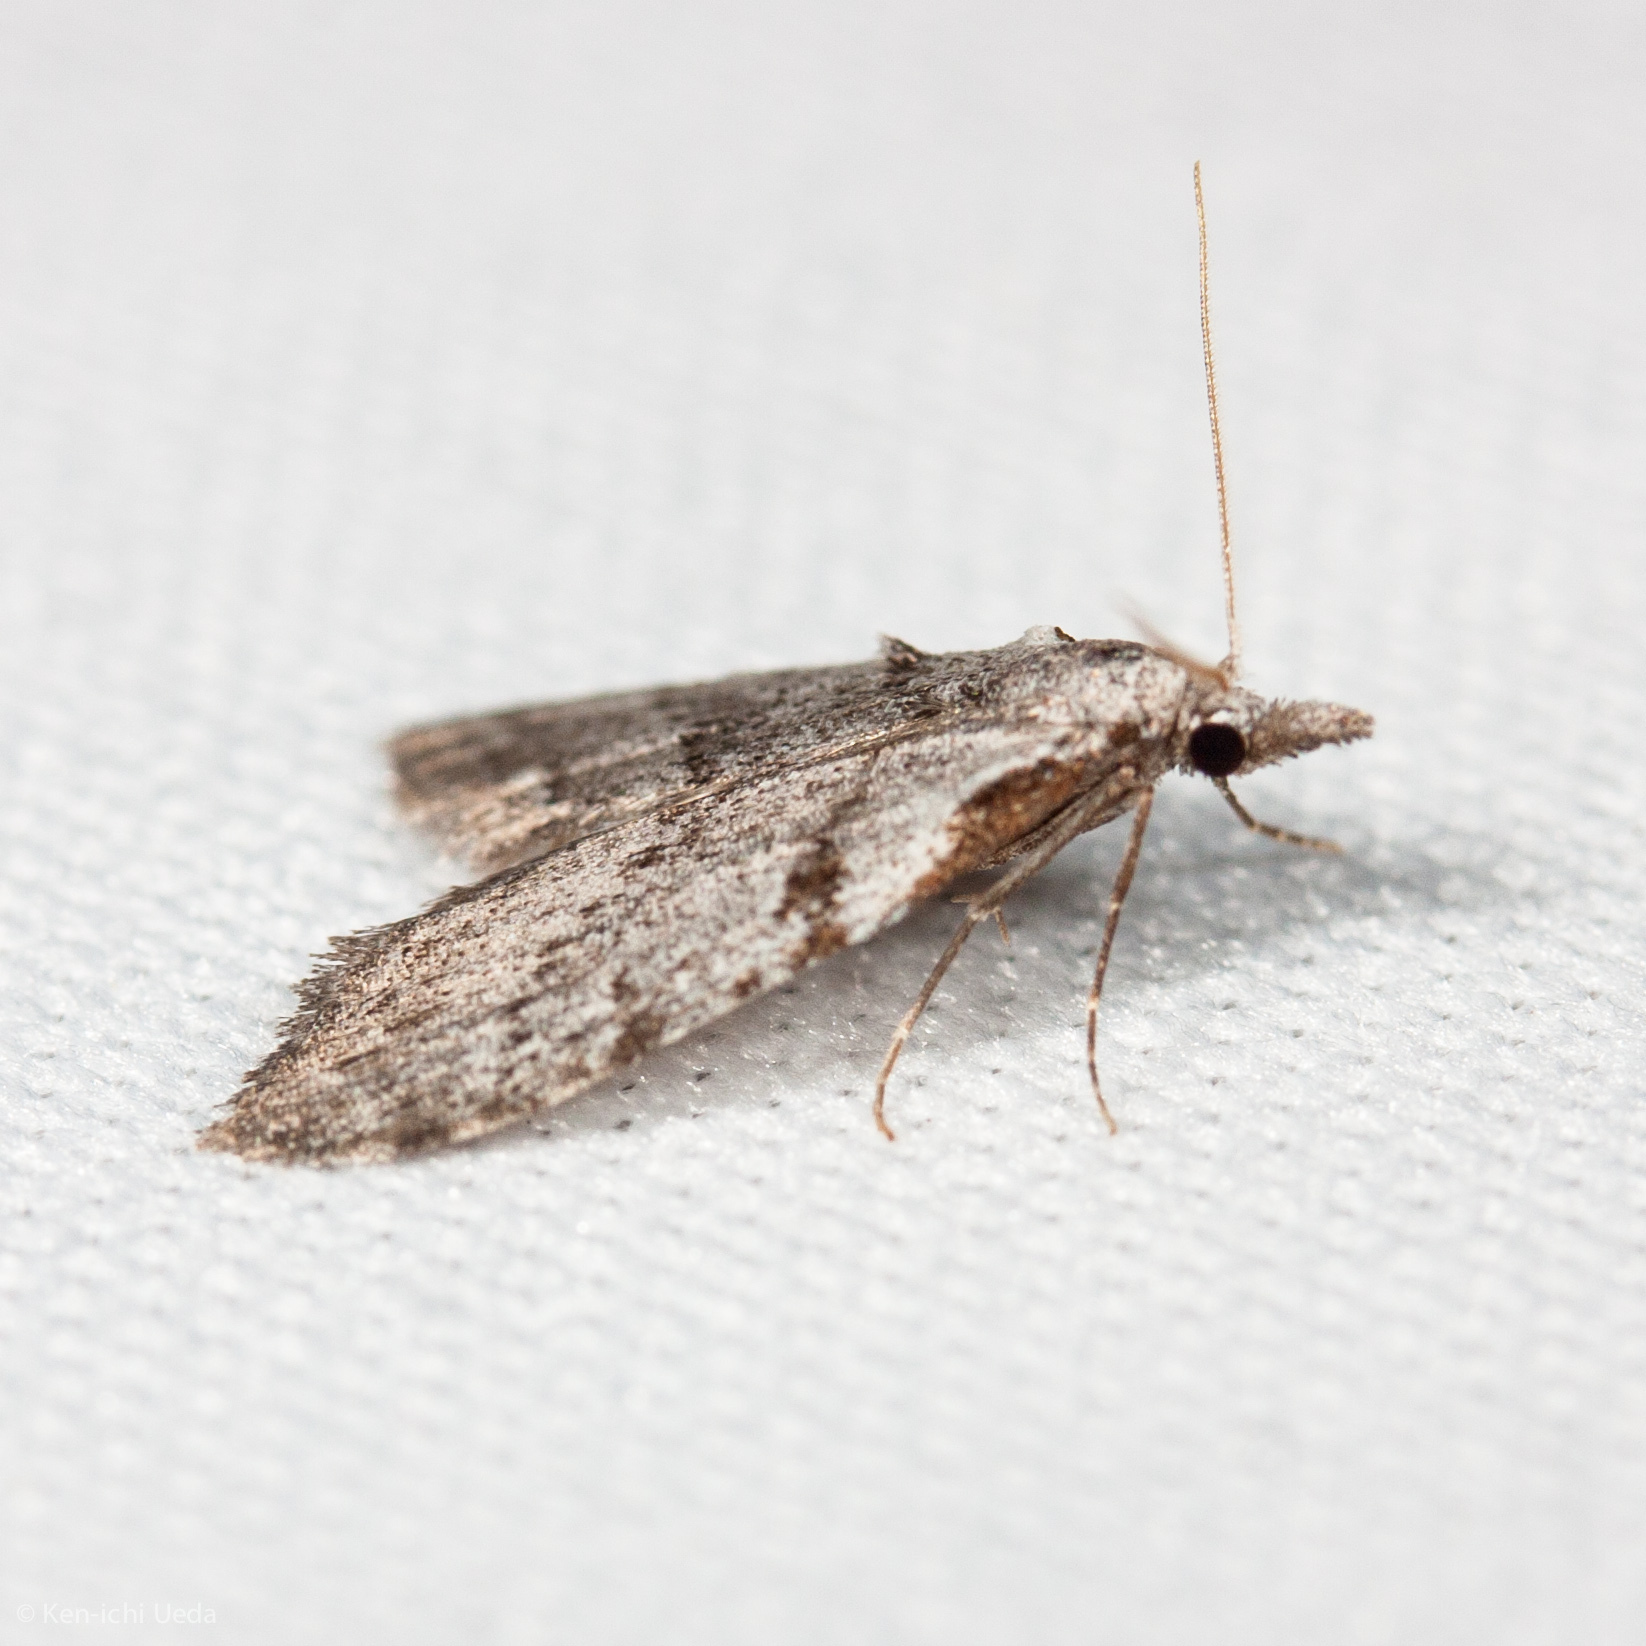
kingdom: Animalia
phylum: Arthropoda
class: Insecta
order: Lepidoptera
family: Nolidae
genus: Nola
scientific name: Nola minna
